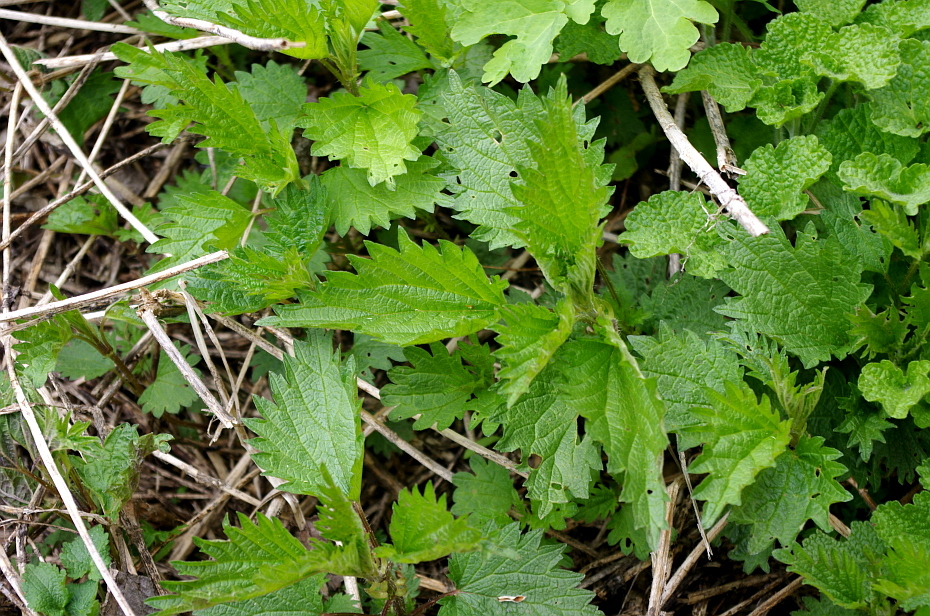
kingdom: Plantae
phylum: Tracheophyta
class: Magnoliopsida
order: Rosales
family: Urticaceae
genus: Urtica
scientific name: Urtica dioica
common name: Common nettle
